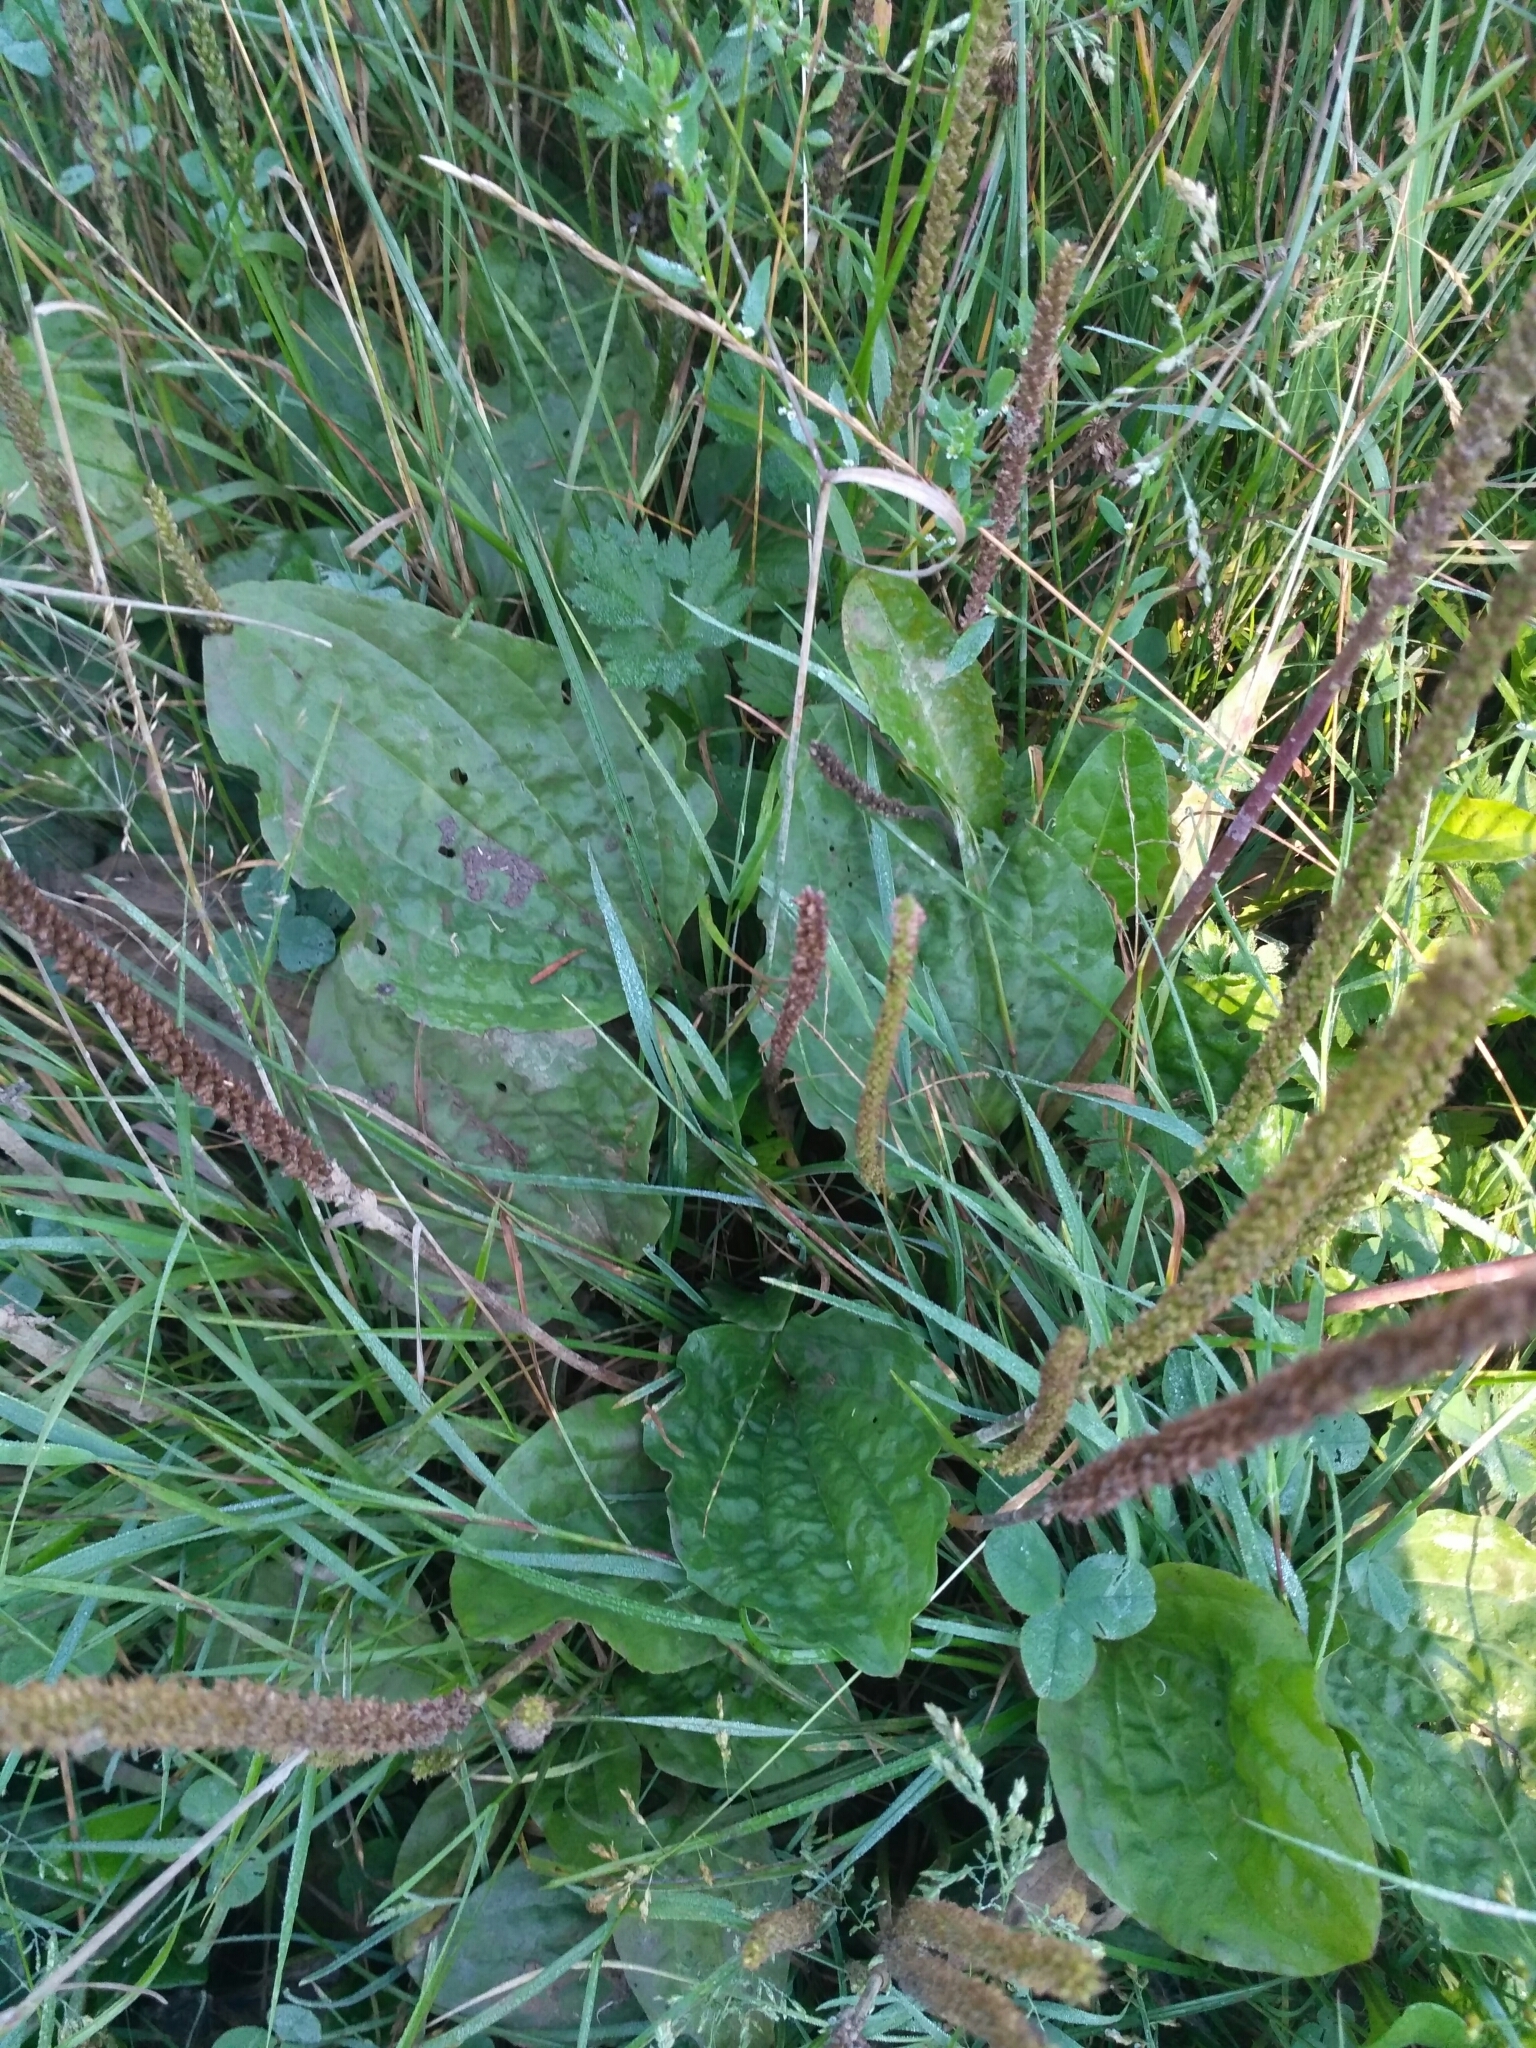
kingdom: Plantae
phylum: Tracheophyta
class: Magnoliopsida
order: Lamiales
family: Plantaginaceae
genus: Plantago
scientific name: Plantago major
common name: Common plantain
